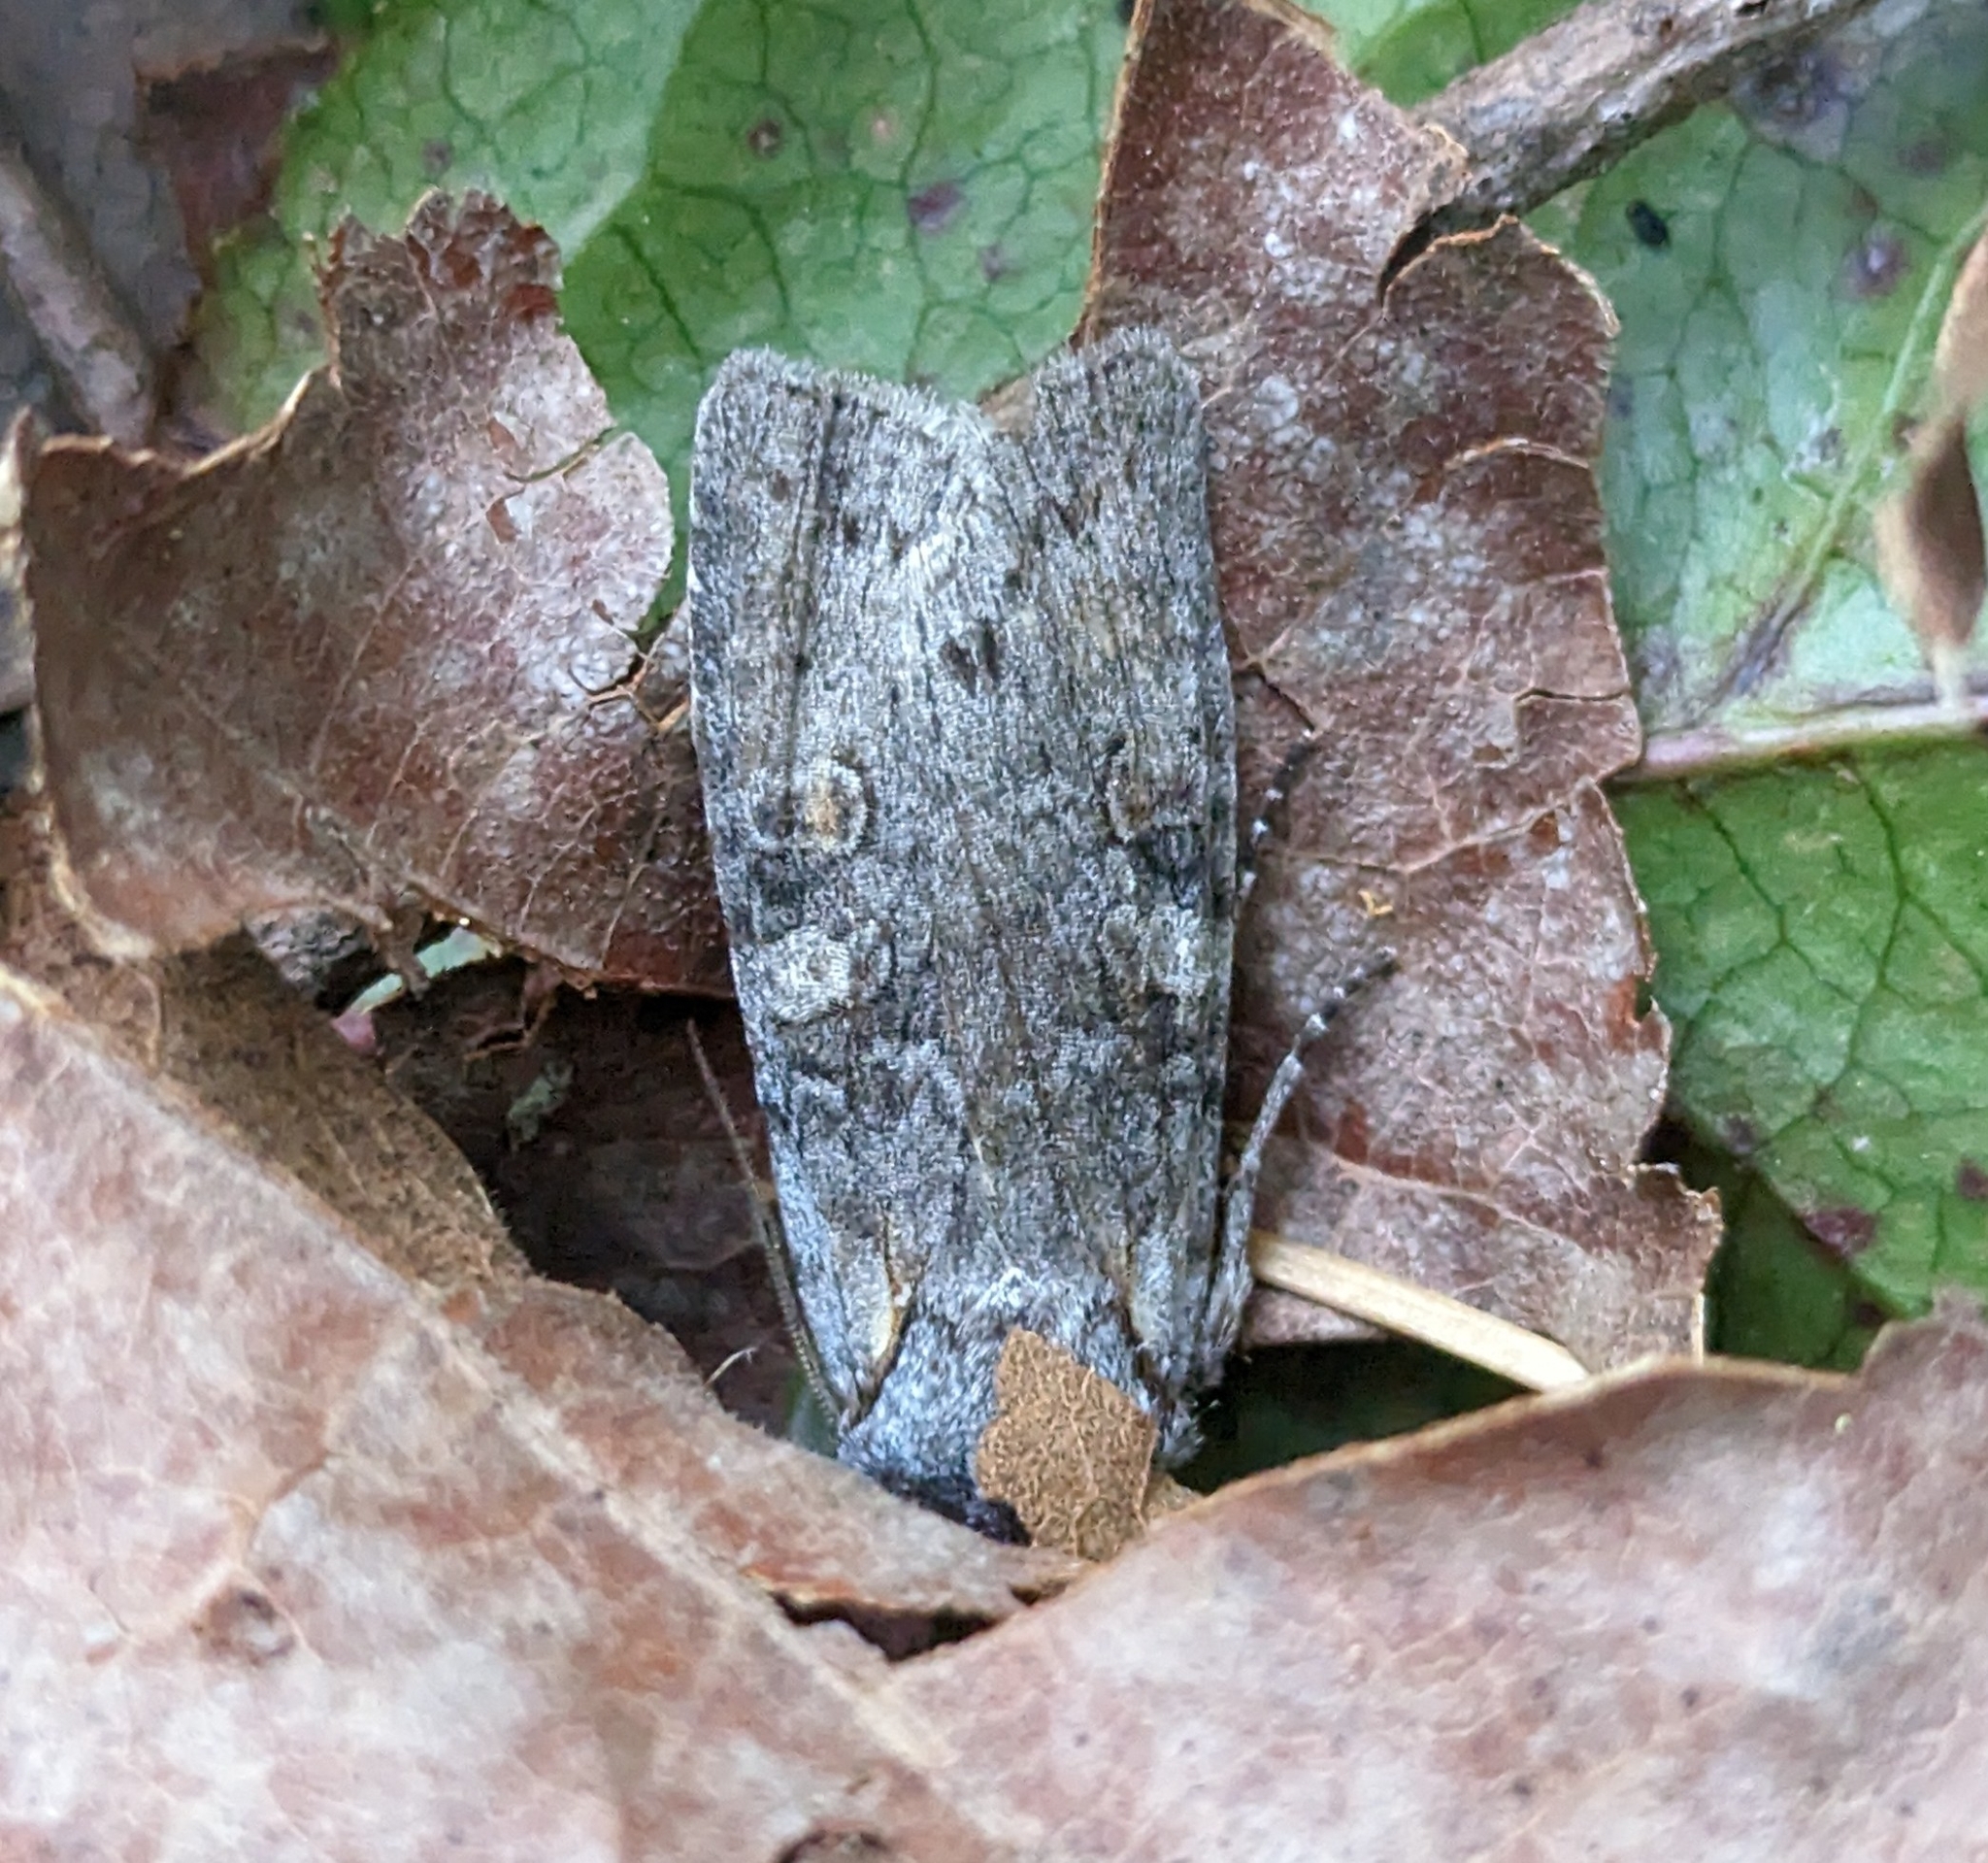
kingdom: Animalia
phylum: Arthropoda
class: Insecta
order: Lepidoptera
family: Noctuidae
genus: Lithophane
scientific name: Lithophane pertorrida
